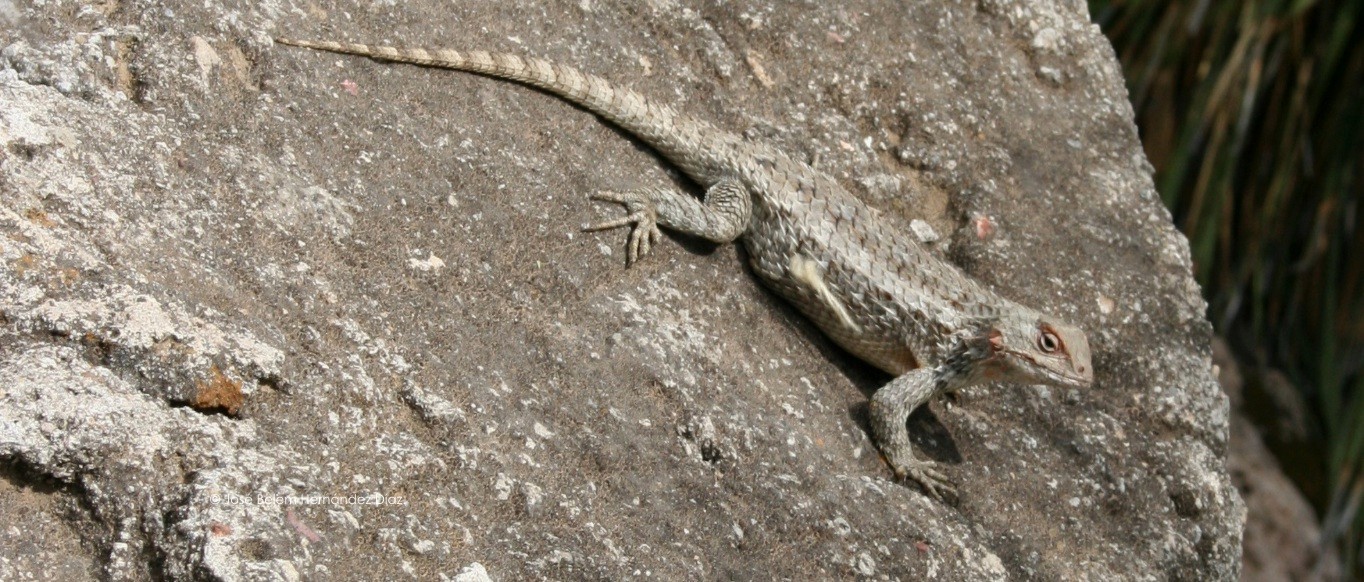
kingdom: Animalia
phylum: Chordata
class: Squamata
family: Phrynosomatidae
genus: Sceloporus
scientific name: Sceloporus spinosus
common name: Blue-spotted spiny lizard [caeruleopunctatus]
